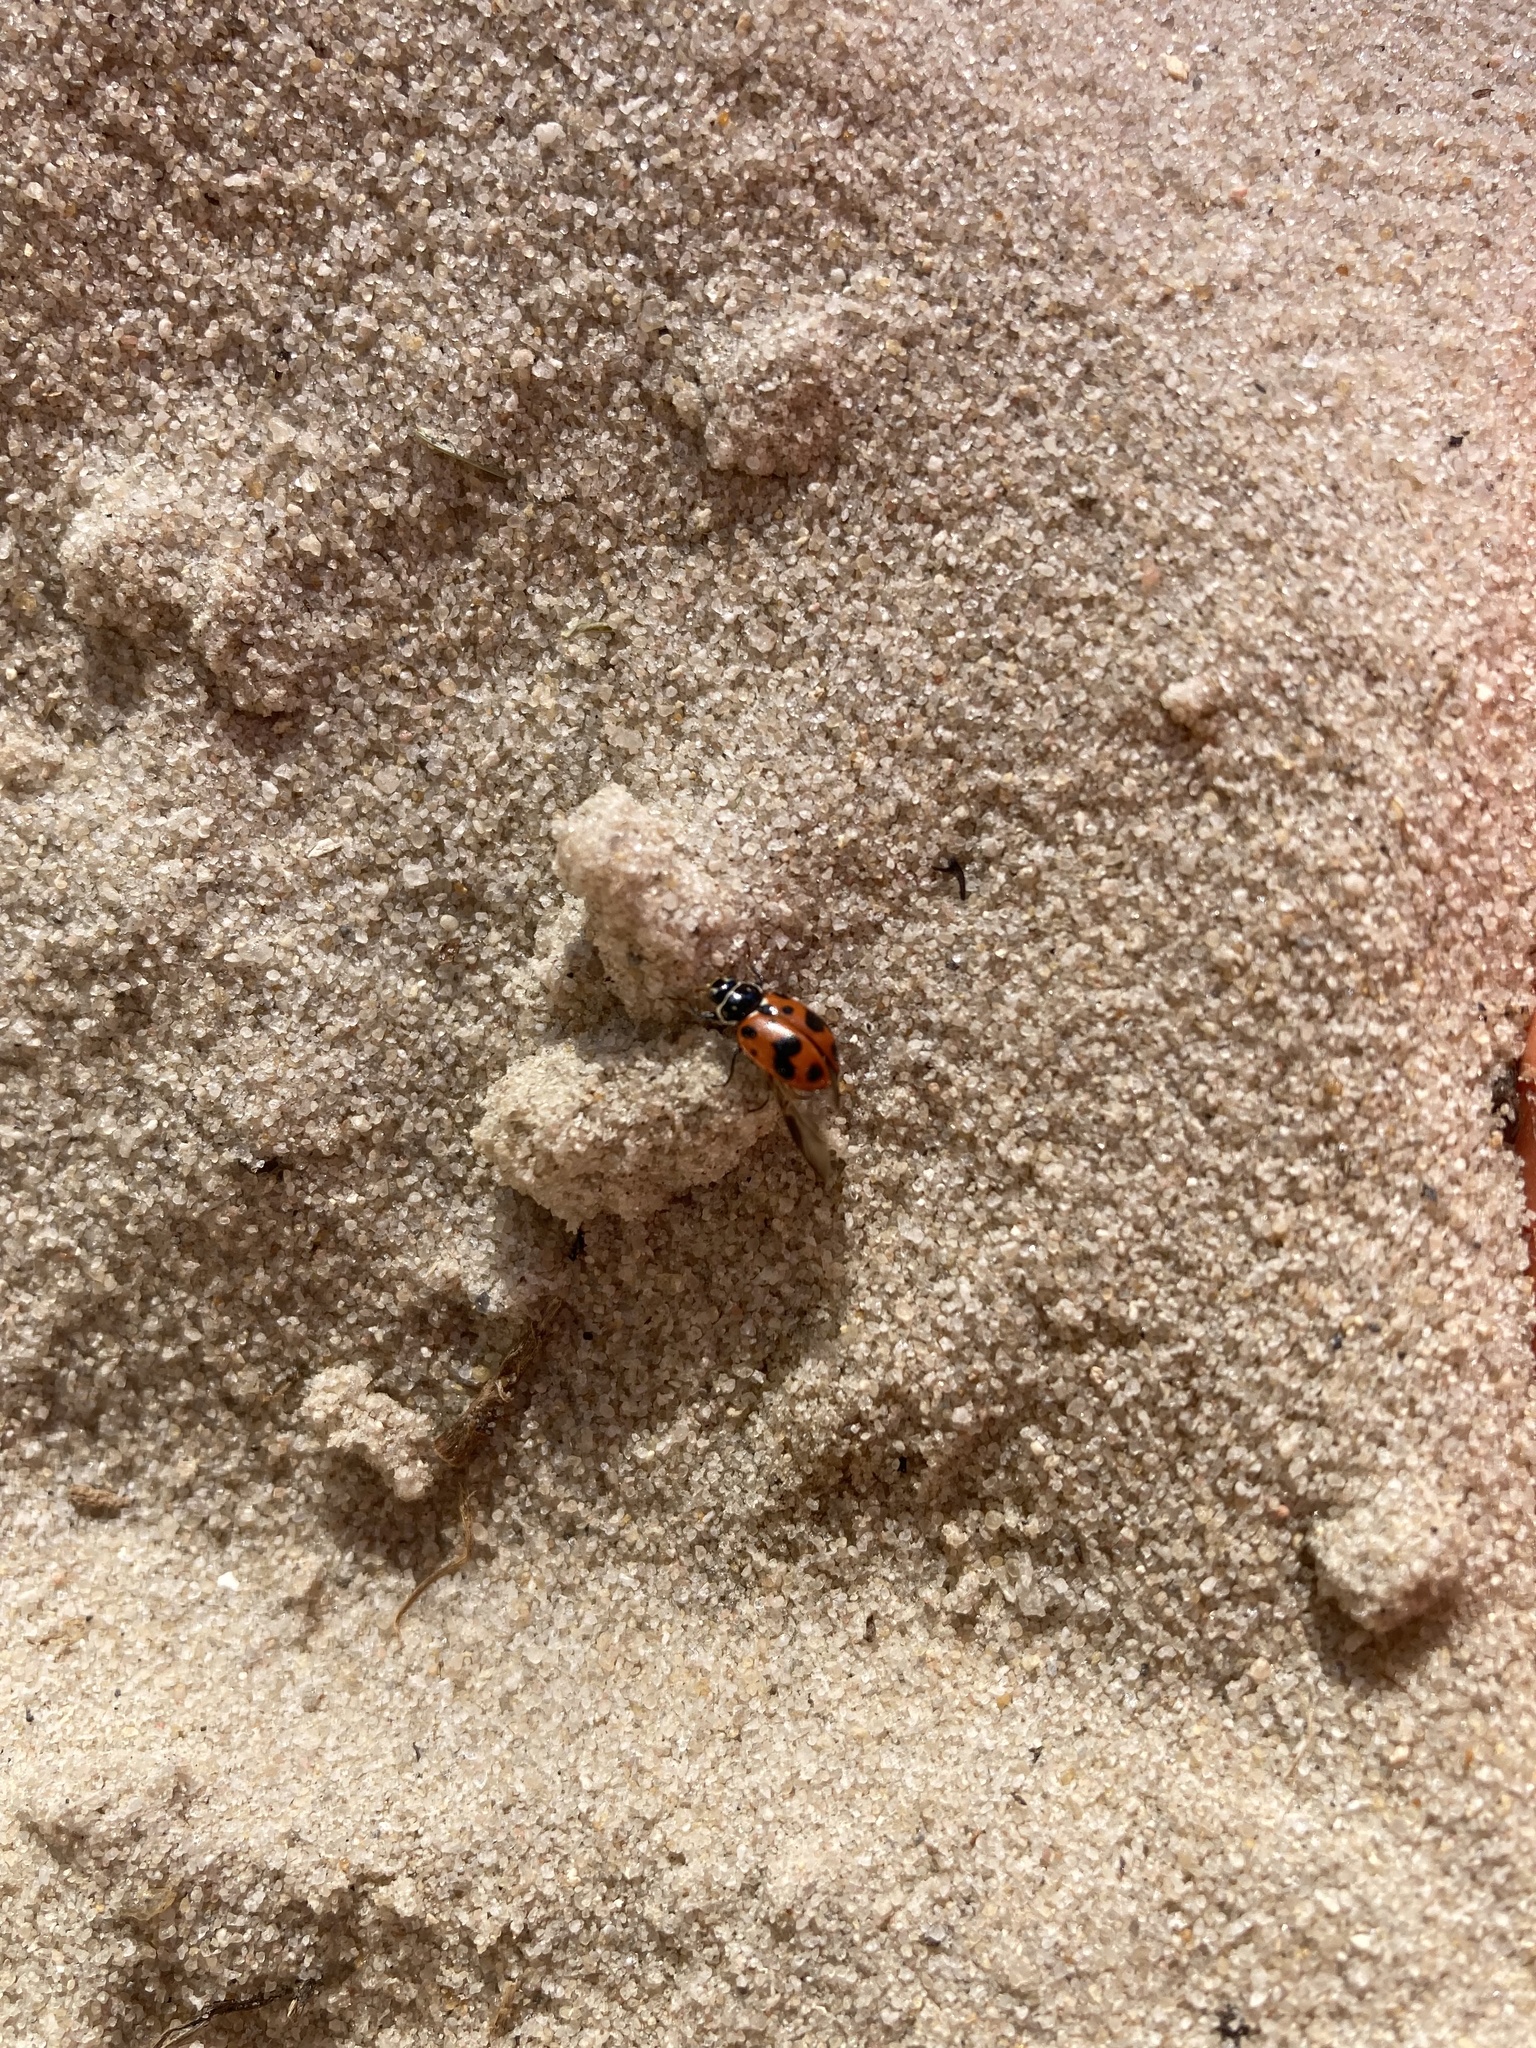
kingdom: Animalia
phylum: Arthropoda
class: Insecta
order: Coleoptera
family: Coccinellidae
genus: Hippodamia
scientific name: Hippodamia variegata
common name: Ladybird beetle
